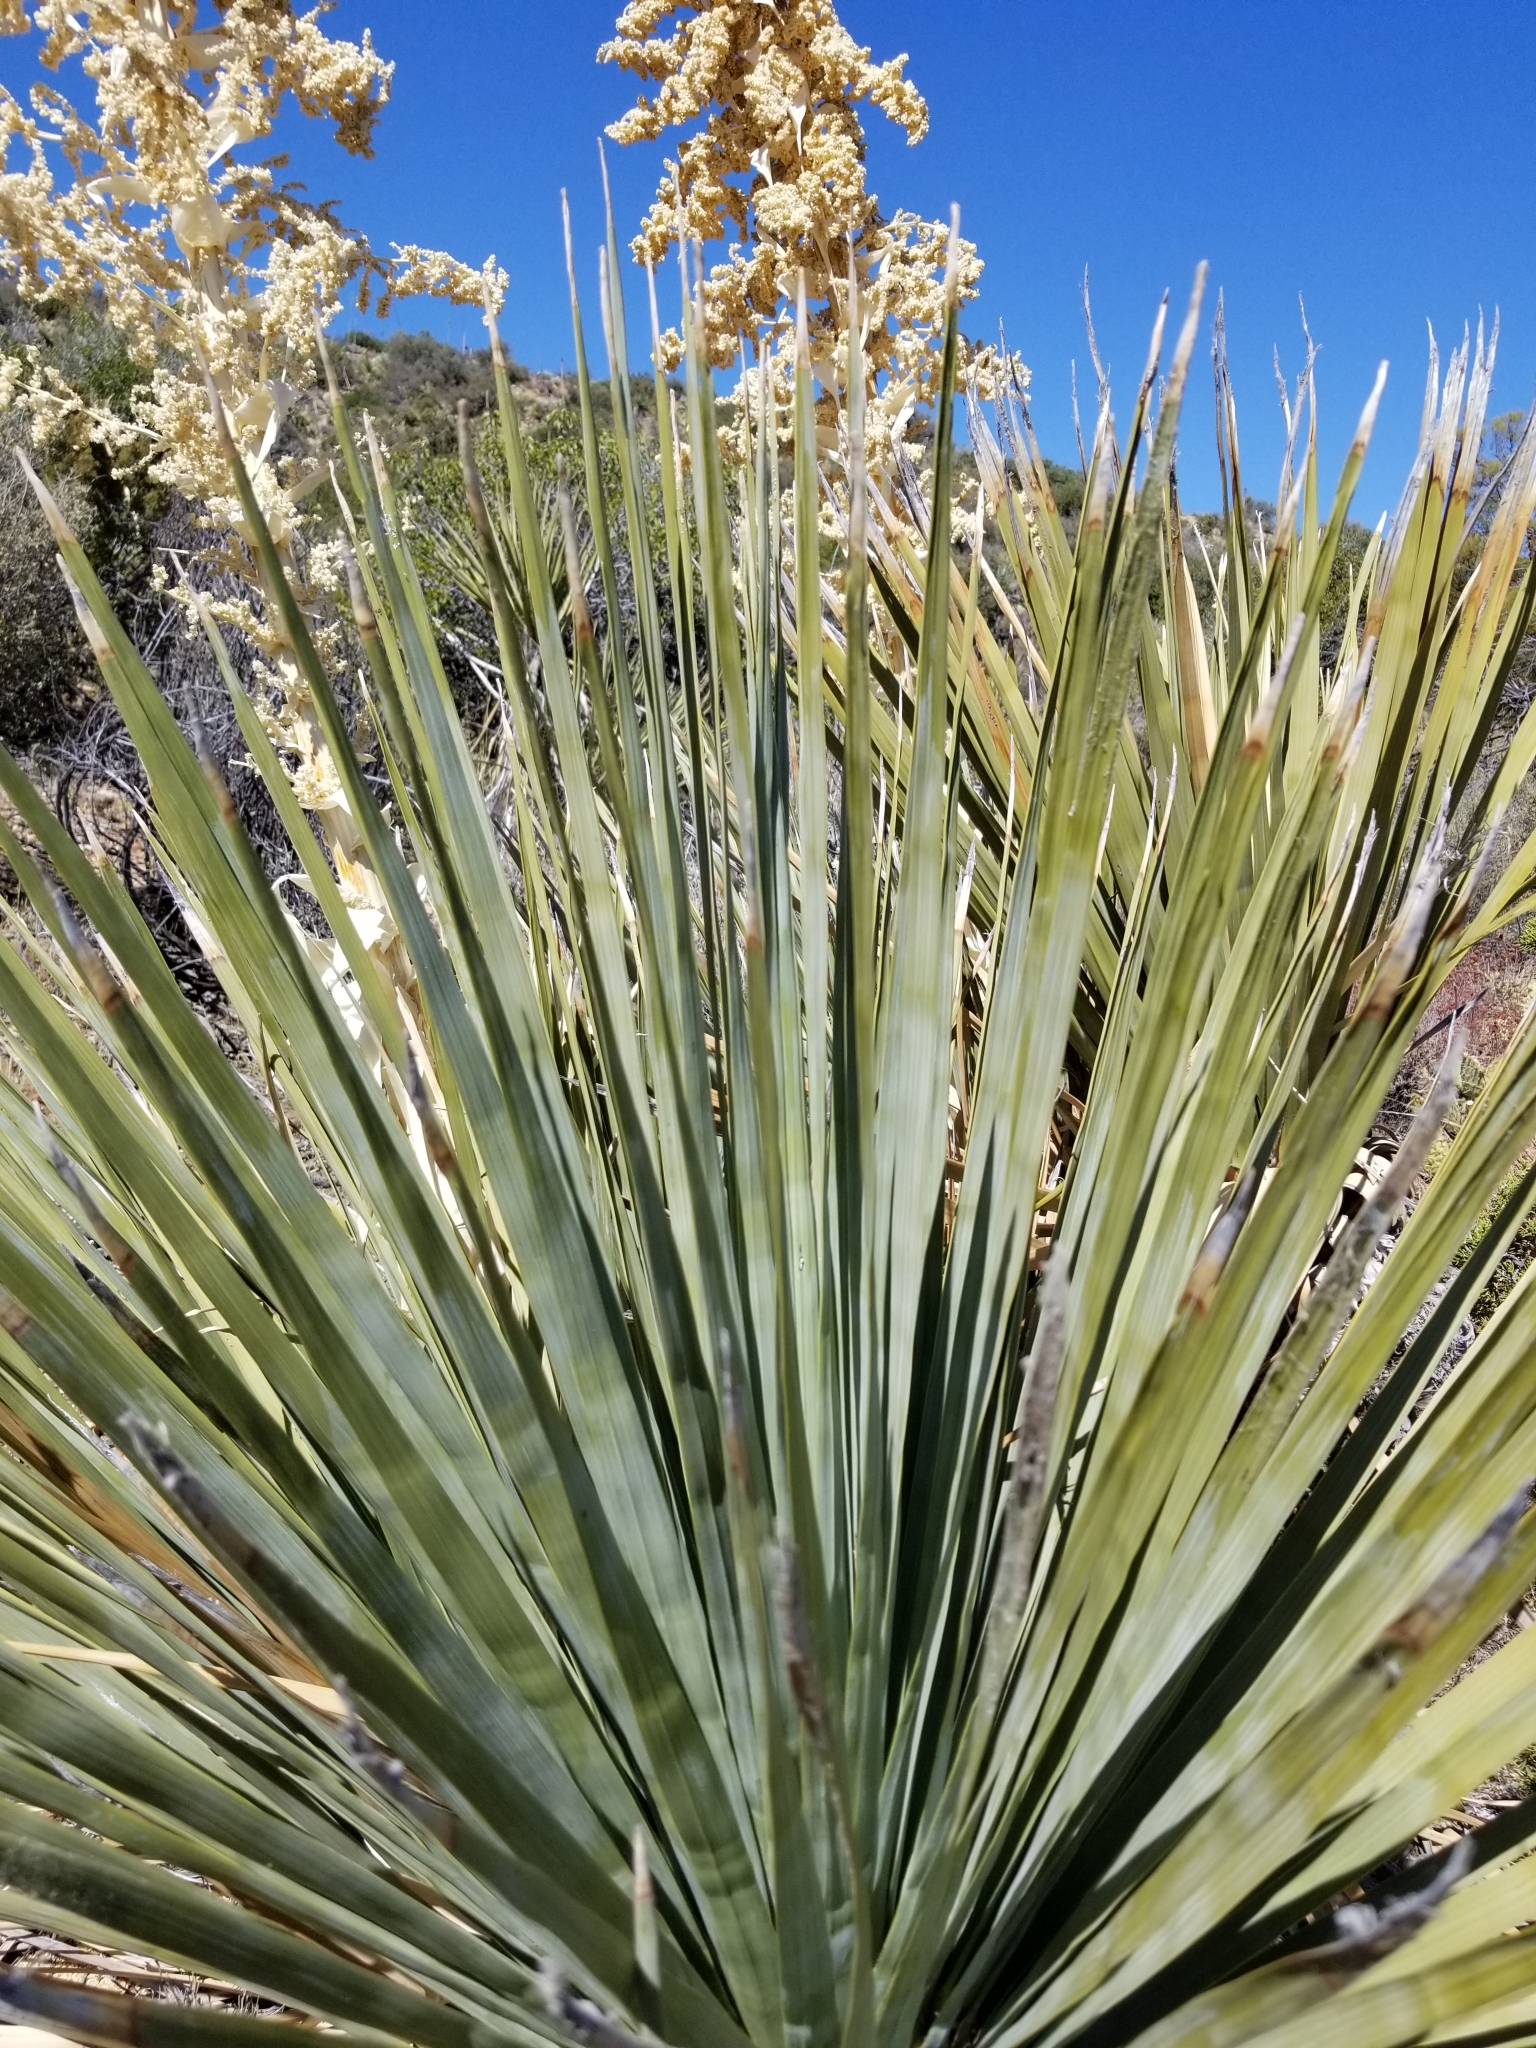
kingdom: Plantae
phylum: Tracheophyta
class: Liliopsida
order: Asparagales
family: Asparagaceae
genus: Nolina
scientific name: Nolina parryi
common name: Parry nolina
